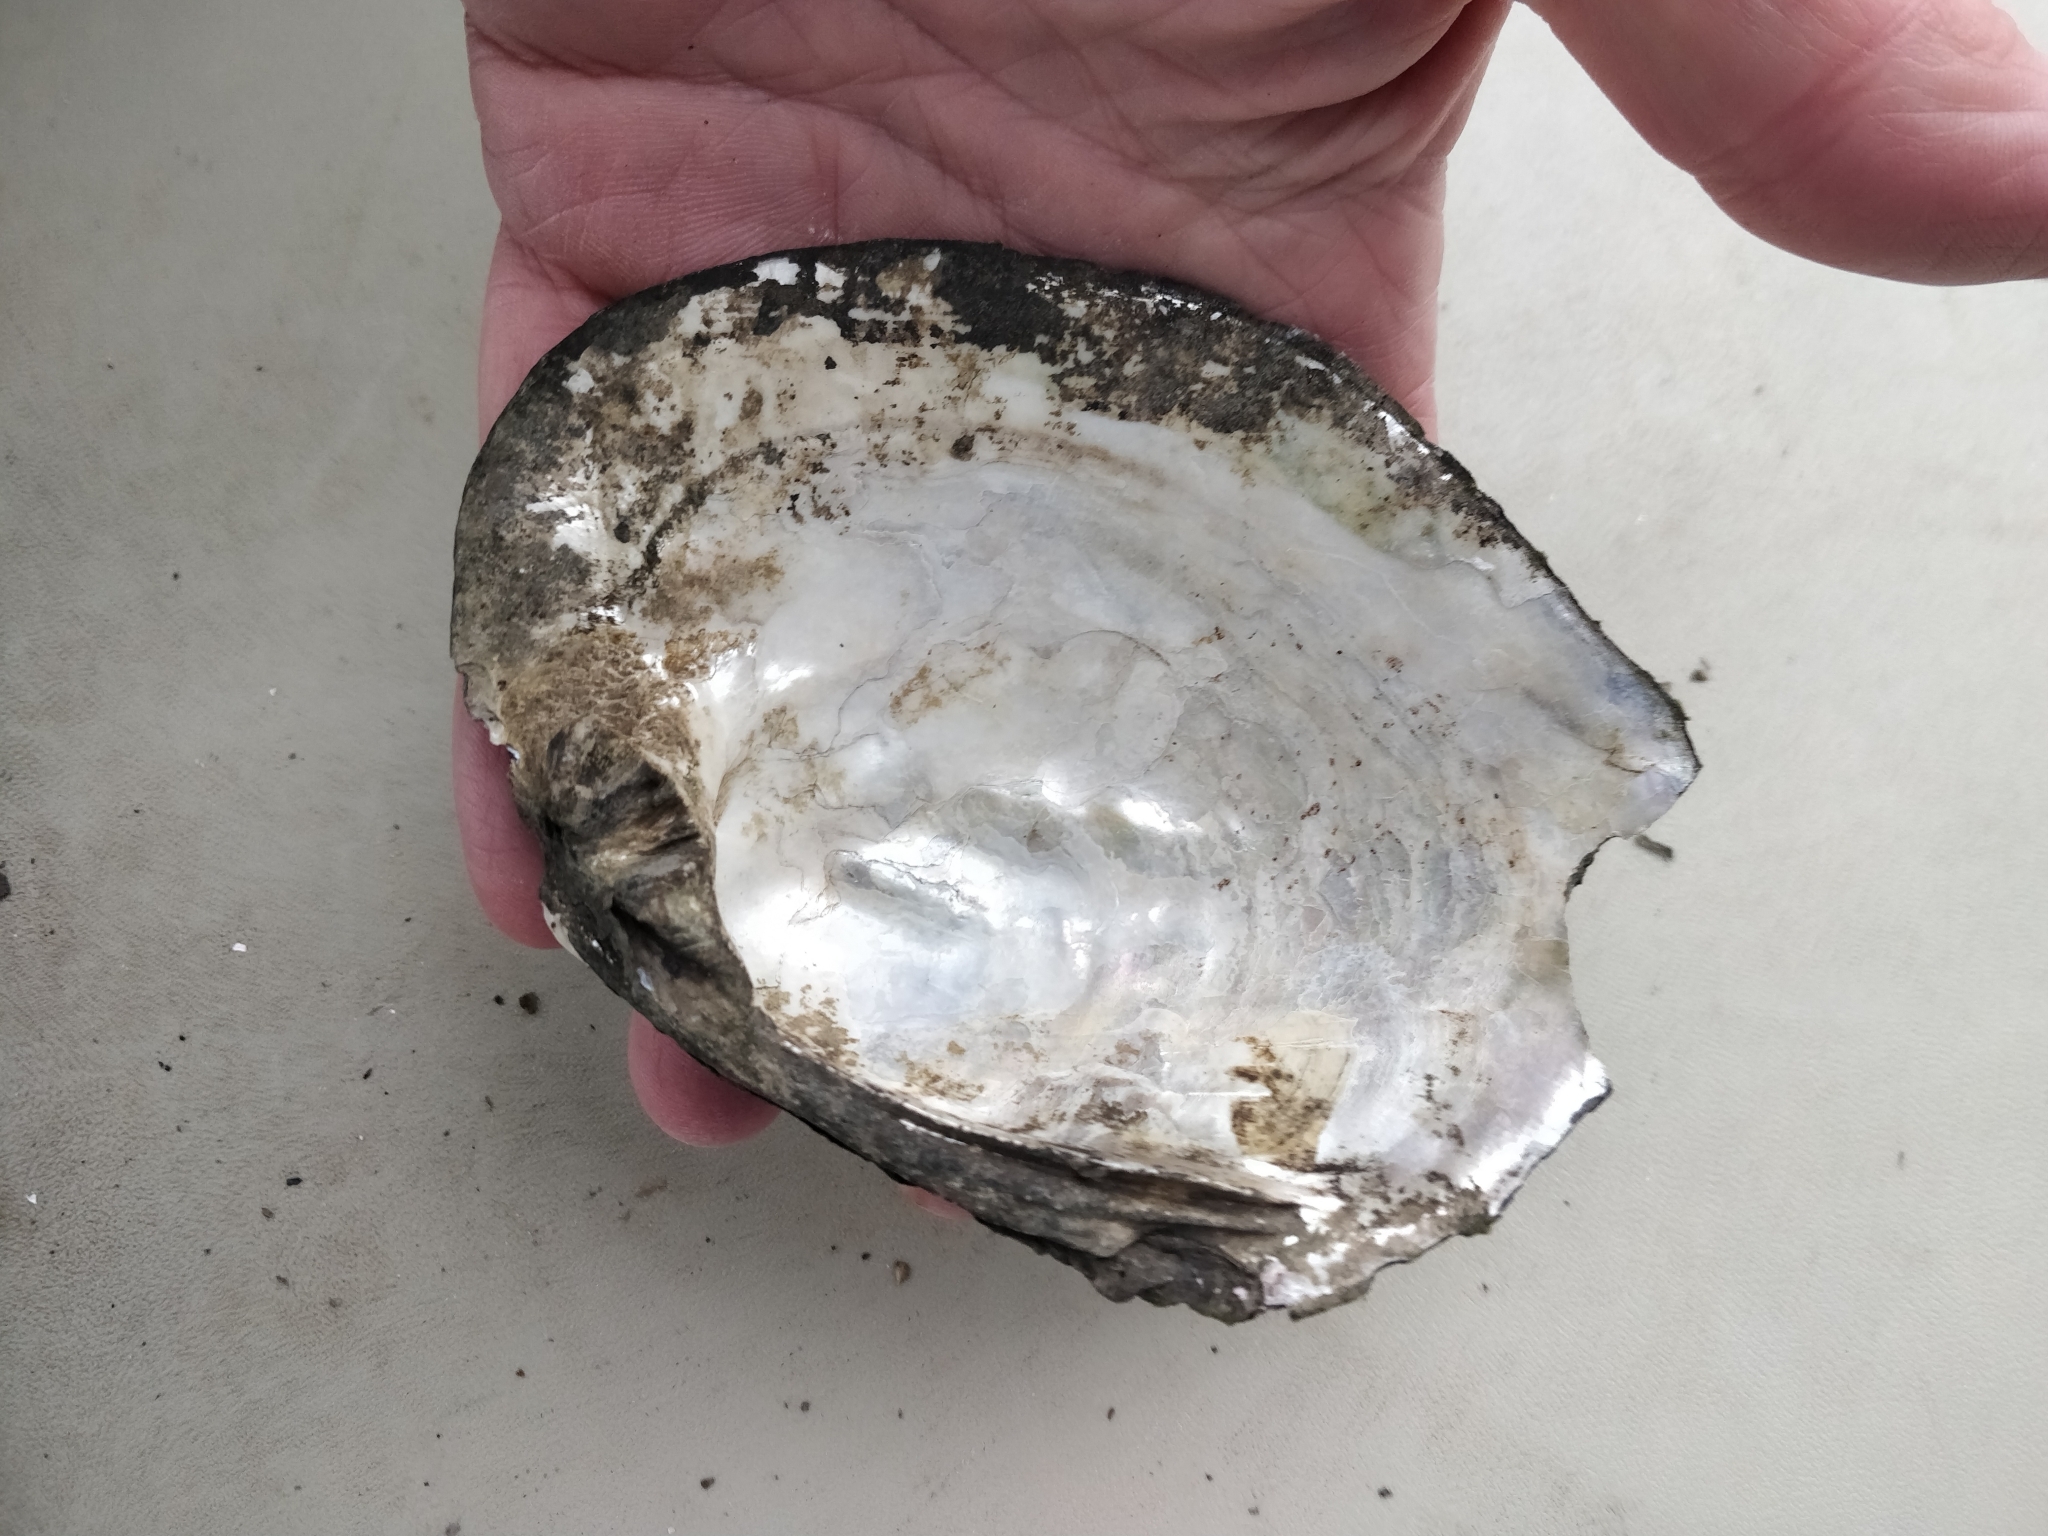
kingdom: Animalia
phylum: Mollusca
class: Bivalvia
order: Unionida
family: Unionidae
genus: Amblema
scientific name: Amblema plicata
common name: Threeridge
